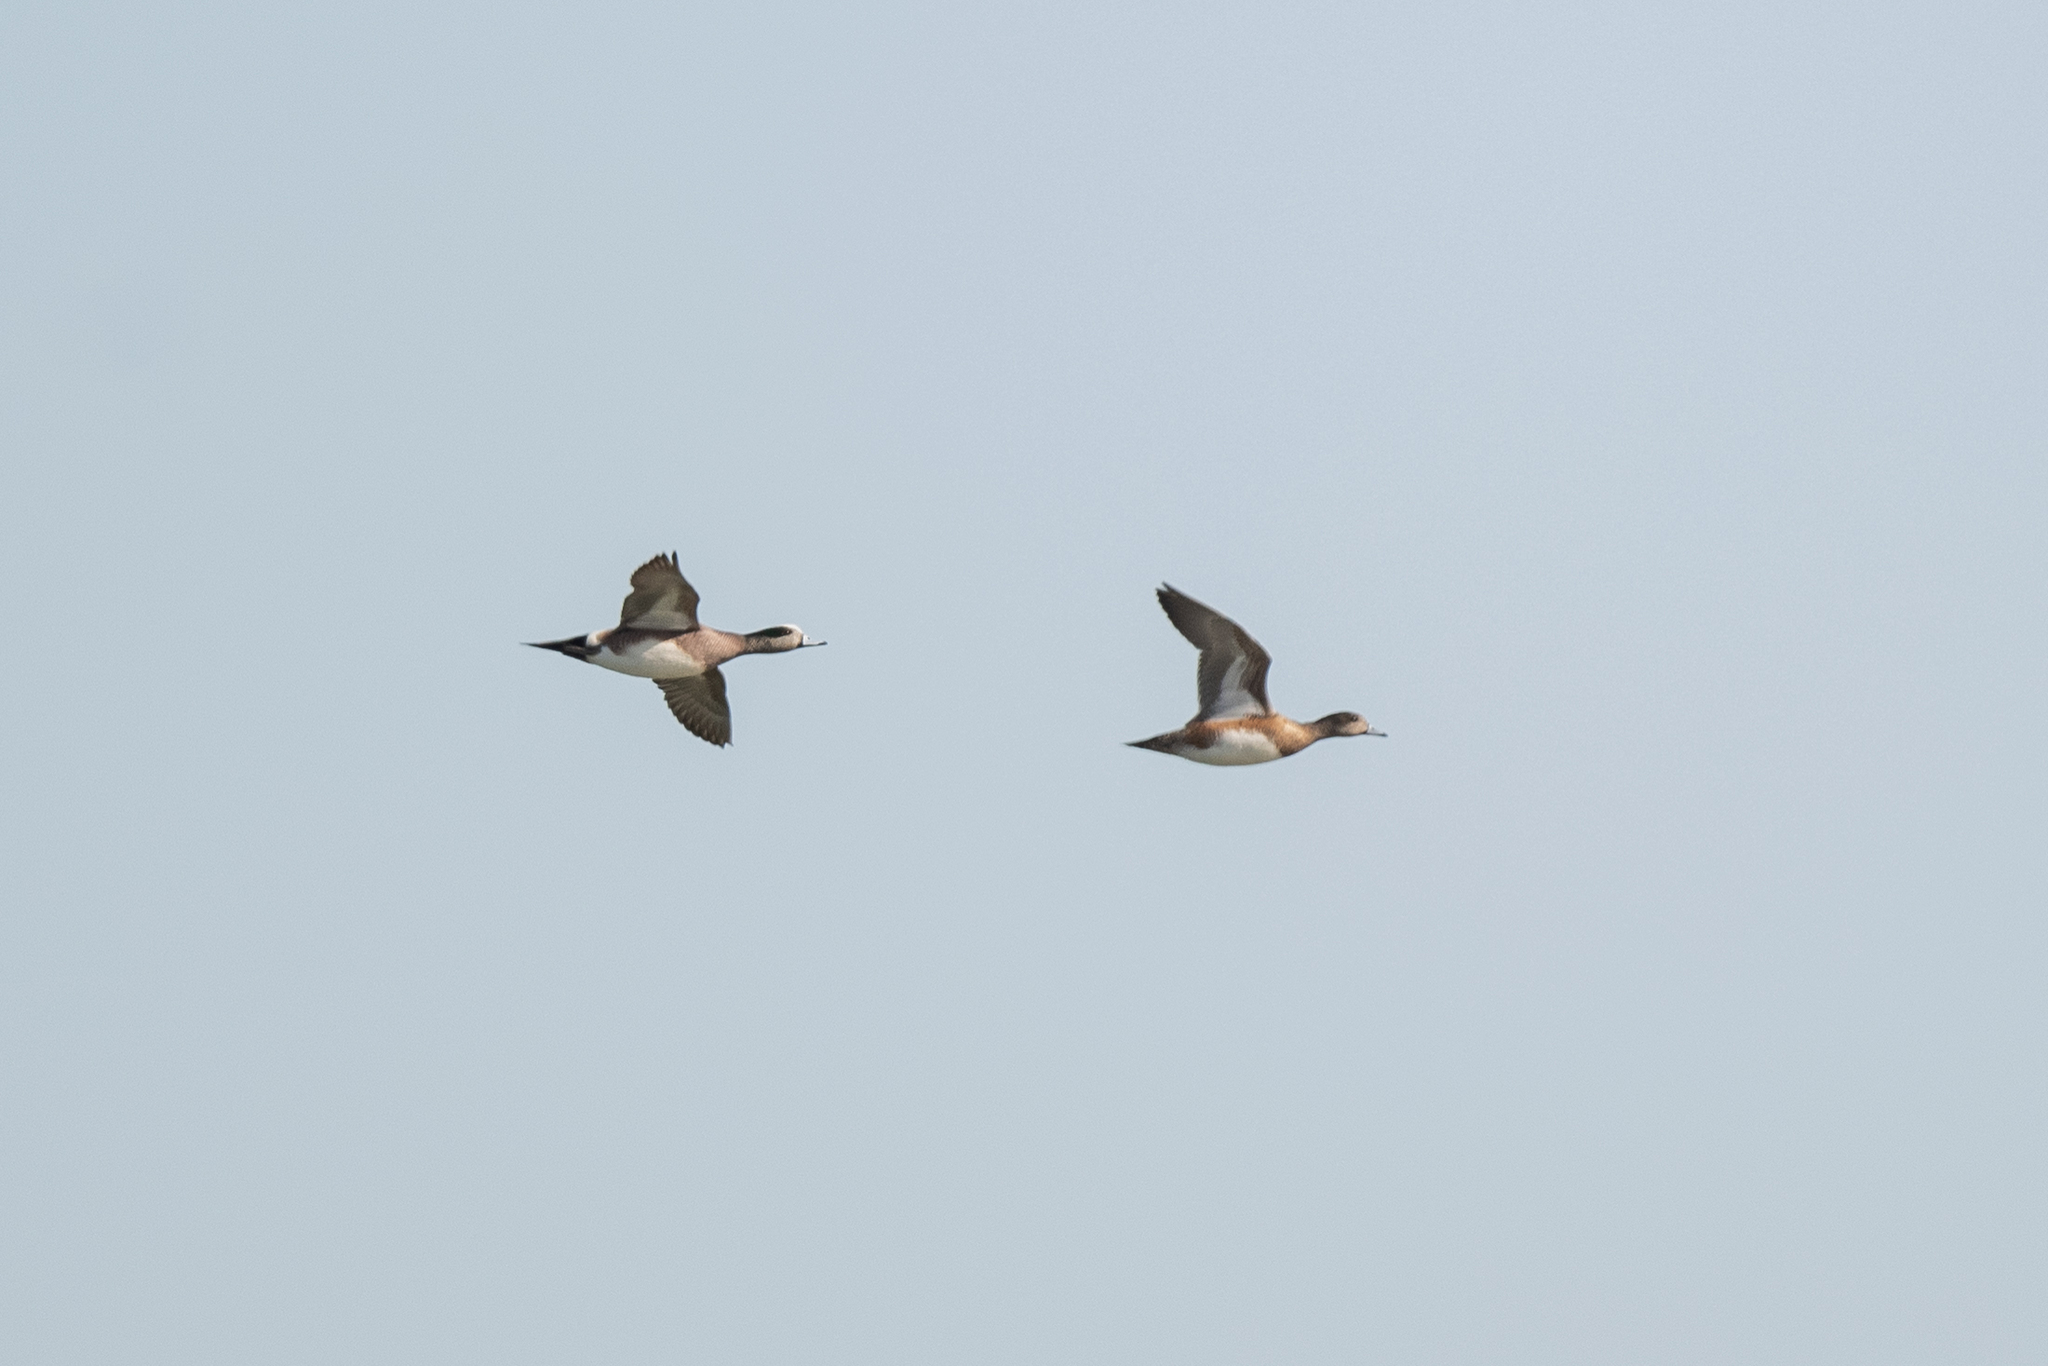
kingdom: Animalia
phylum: Chordata
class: Aves
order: Anseriformes
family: Anatidae
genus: Mareca
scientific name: Mareca americana
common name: American wigeon
